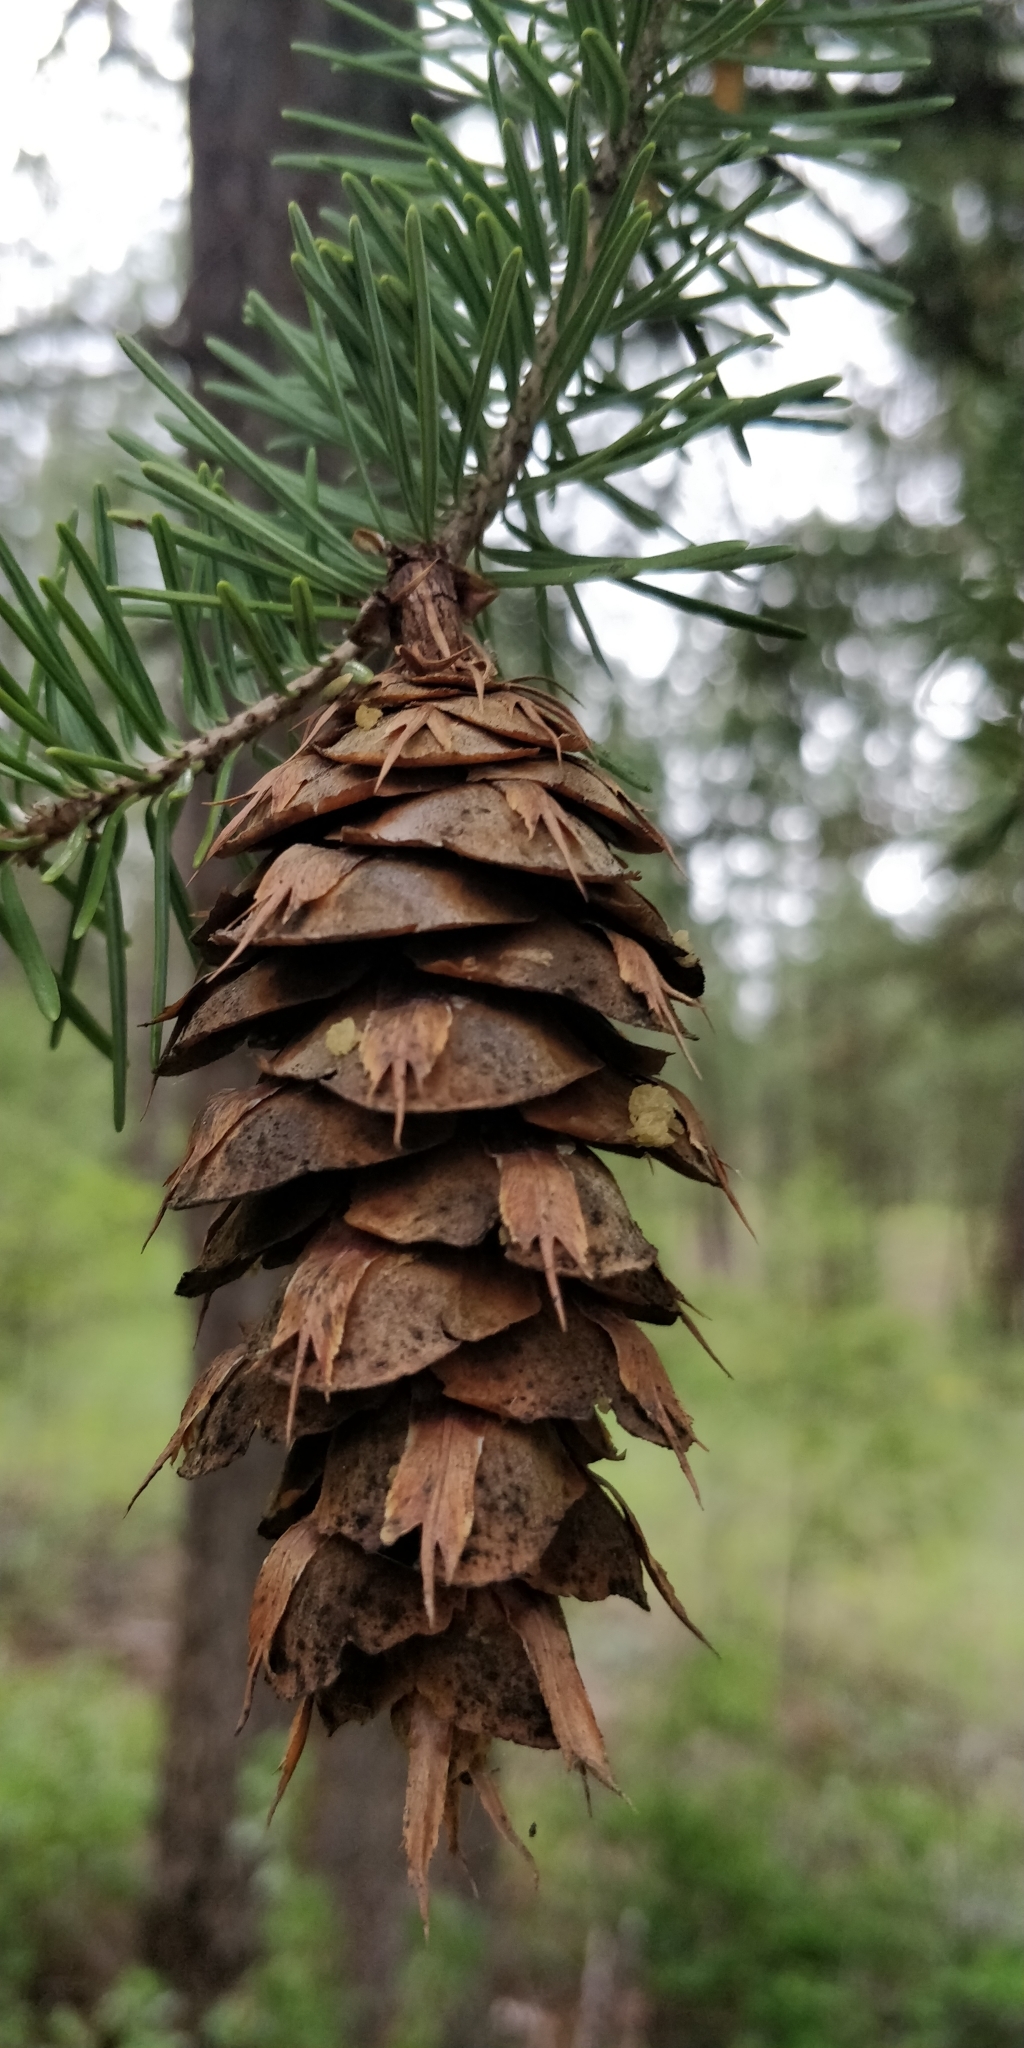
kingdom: Plantae
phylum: Tracheophyta
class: Pinopsida
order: Pinales
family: Pinaceae
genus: Pseudotsuga
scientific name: Pseudotsuga menziesii
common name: Douglas fir
